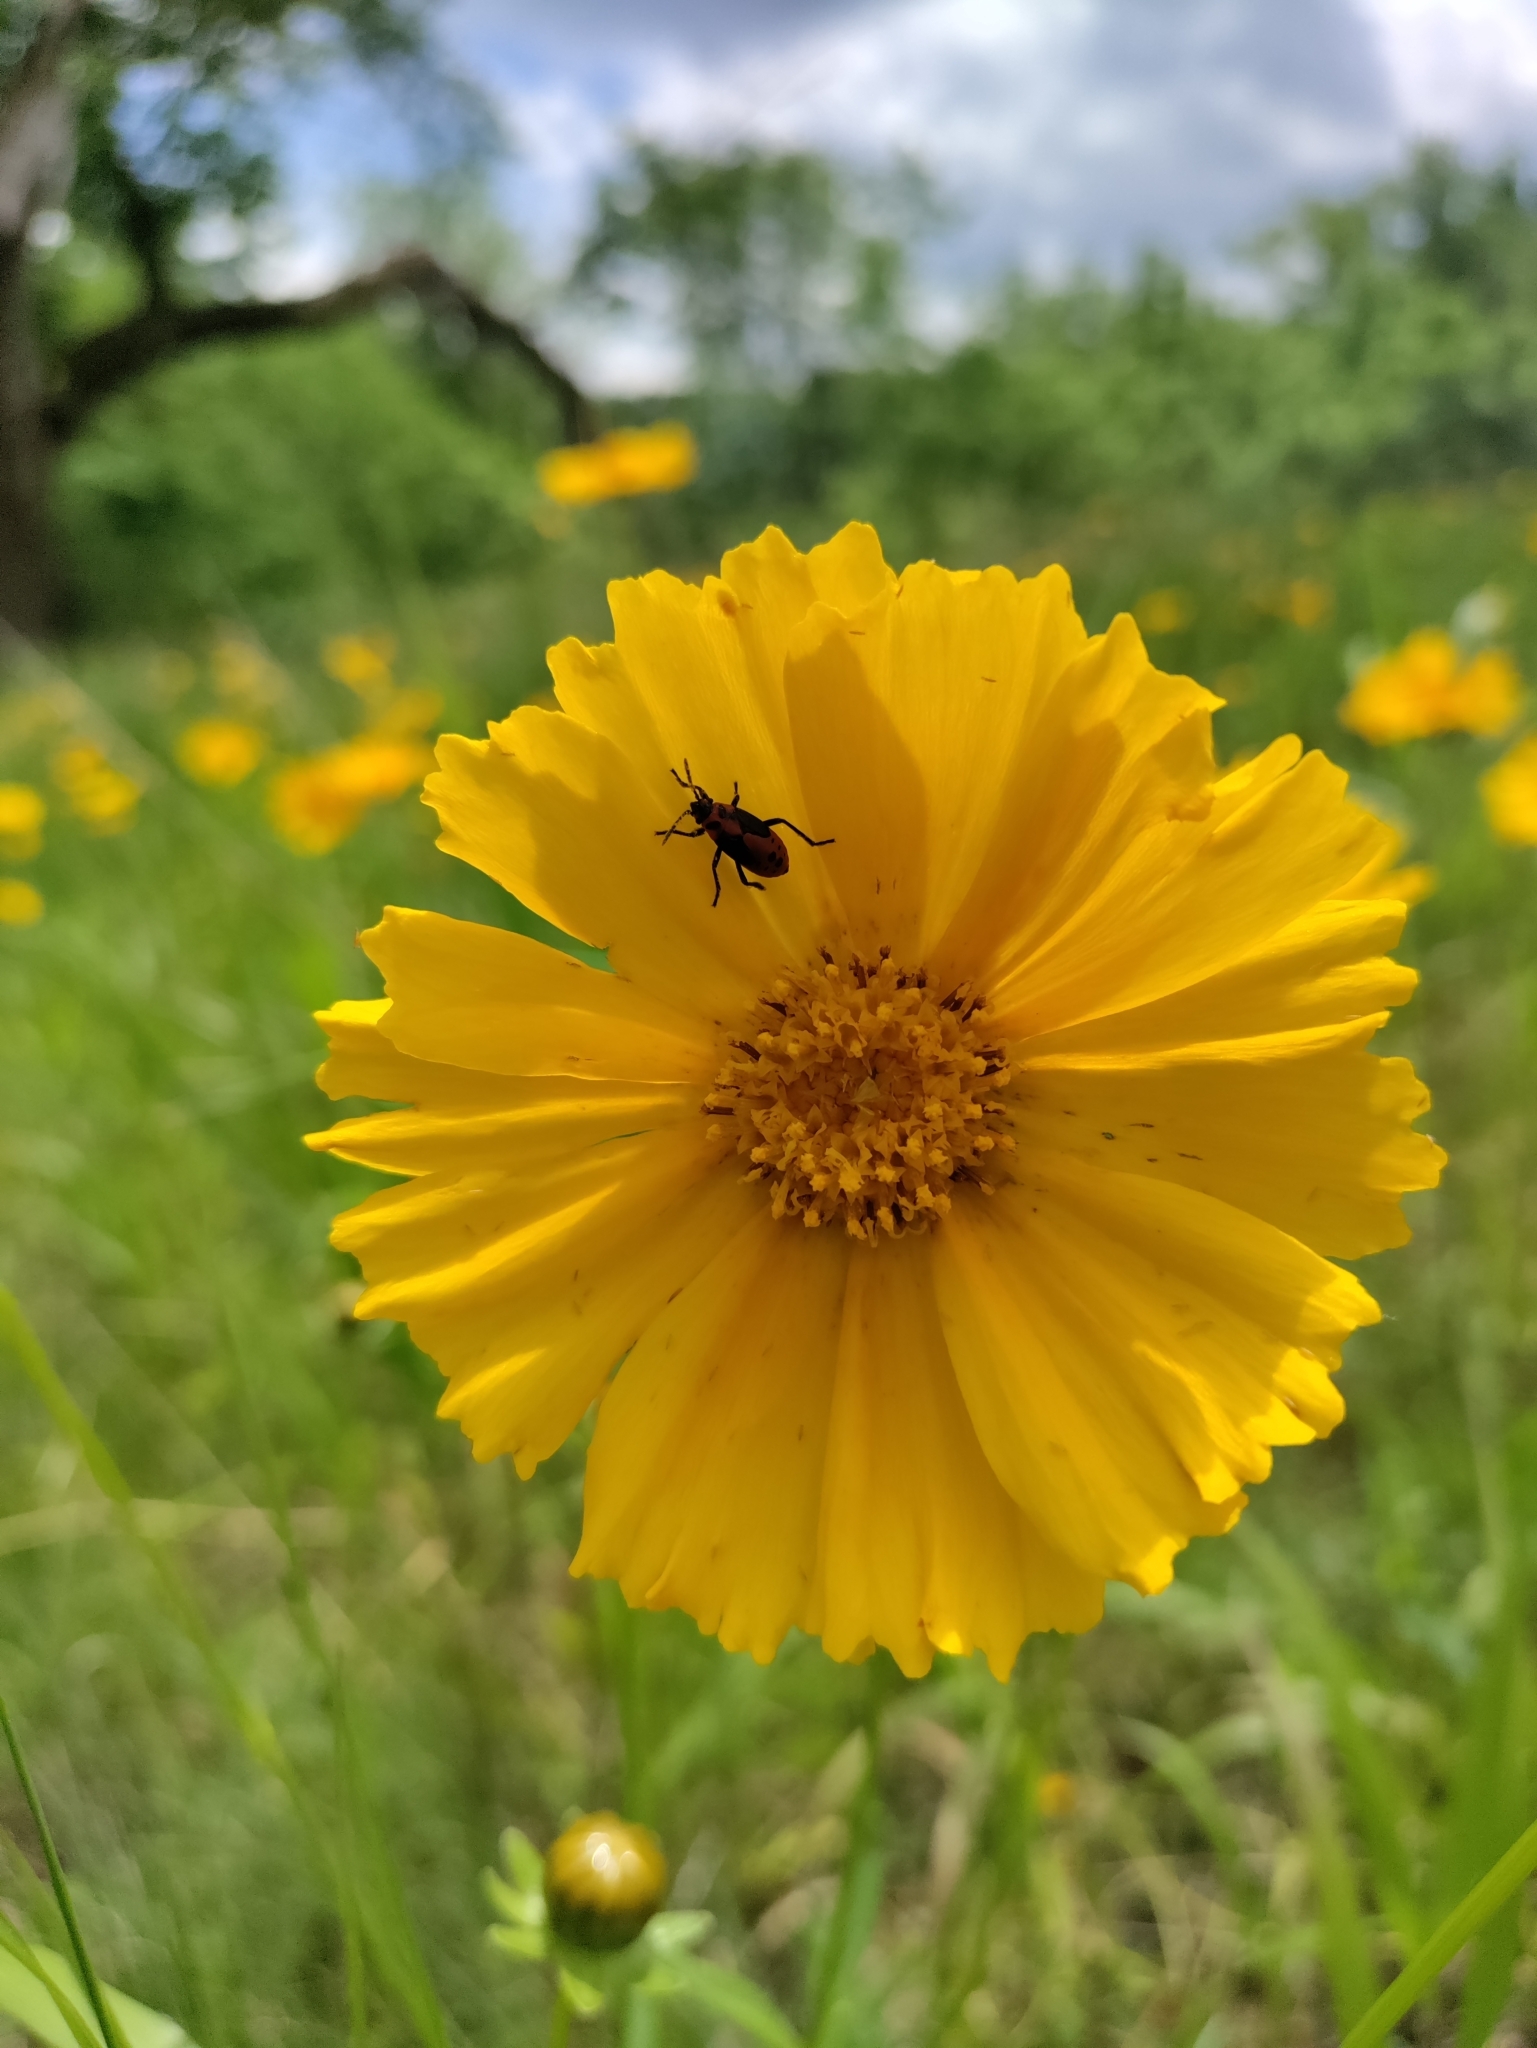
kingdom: Plantae
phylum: Tracheophyta
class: Magnoliopsida
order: Asterales
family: Asteraceae
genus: Coreopsis
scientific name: Coreopsis lanceolata
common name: Garden coreopsis
